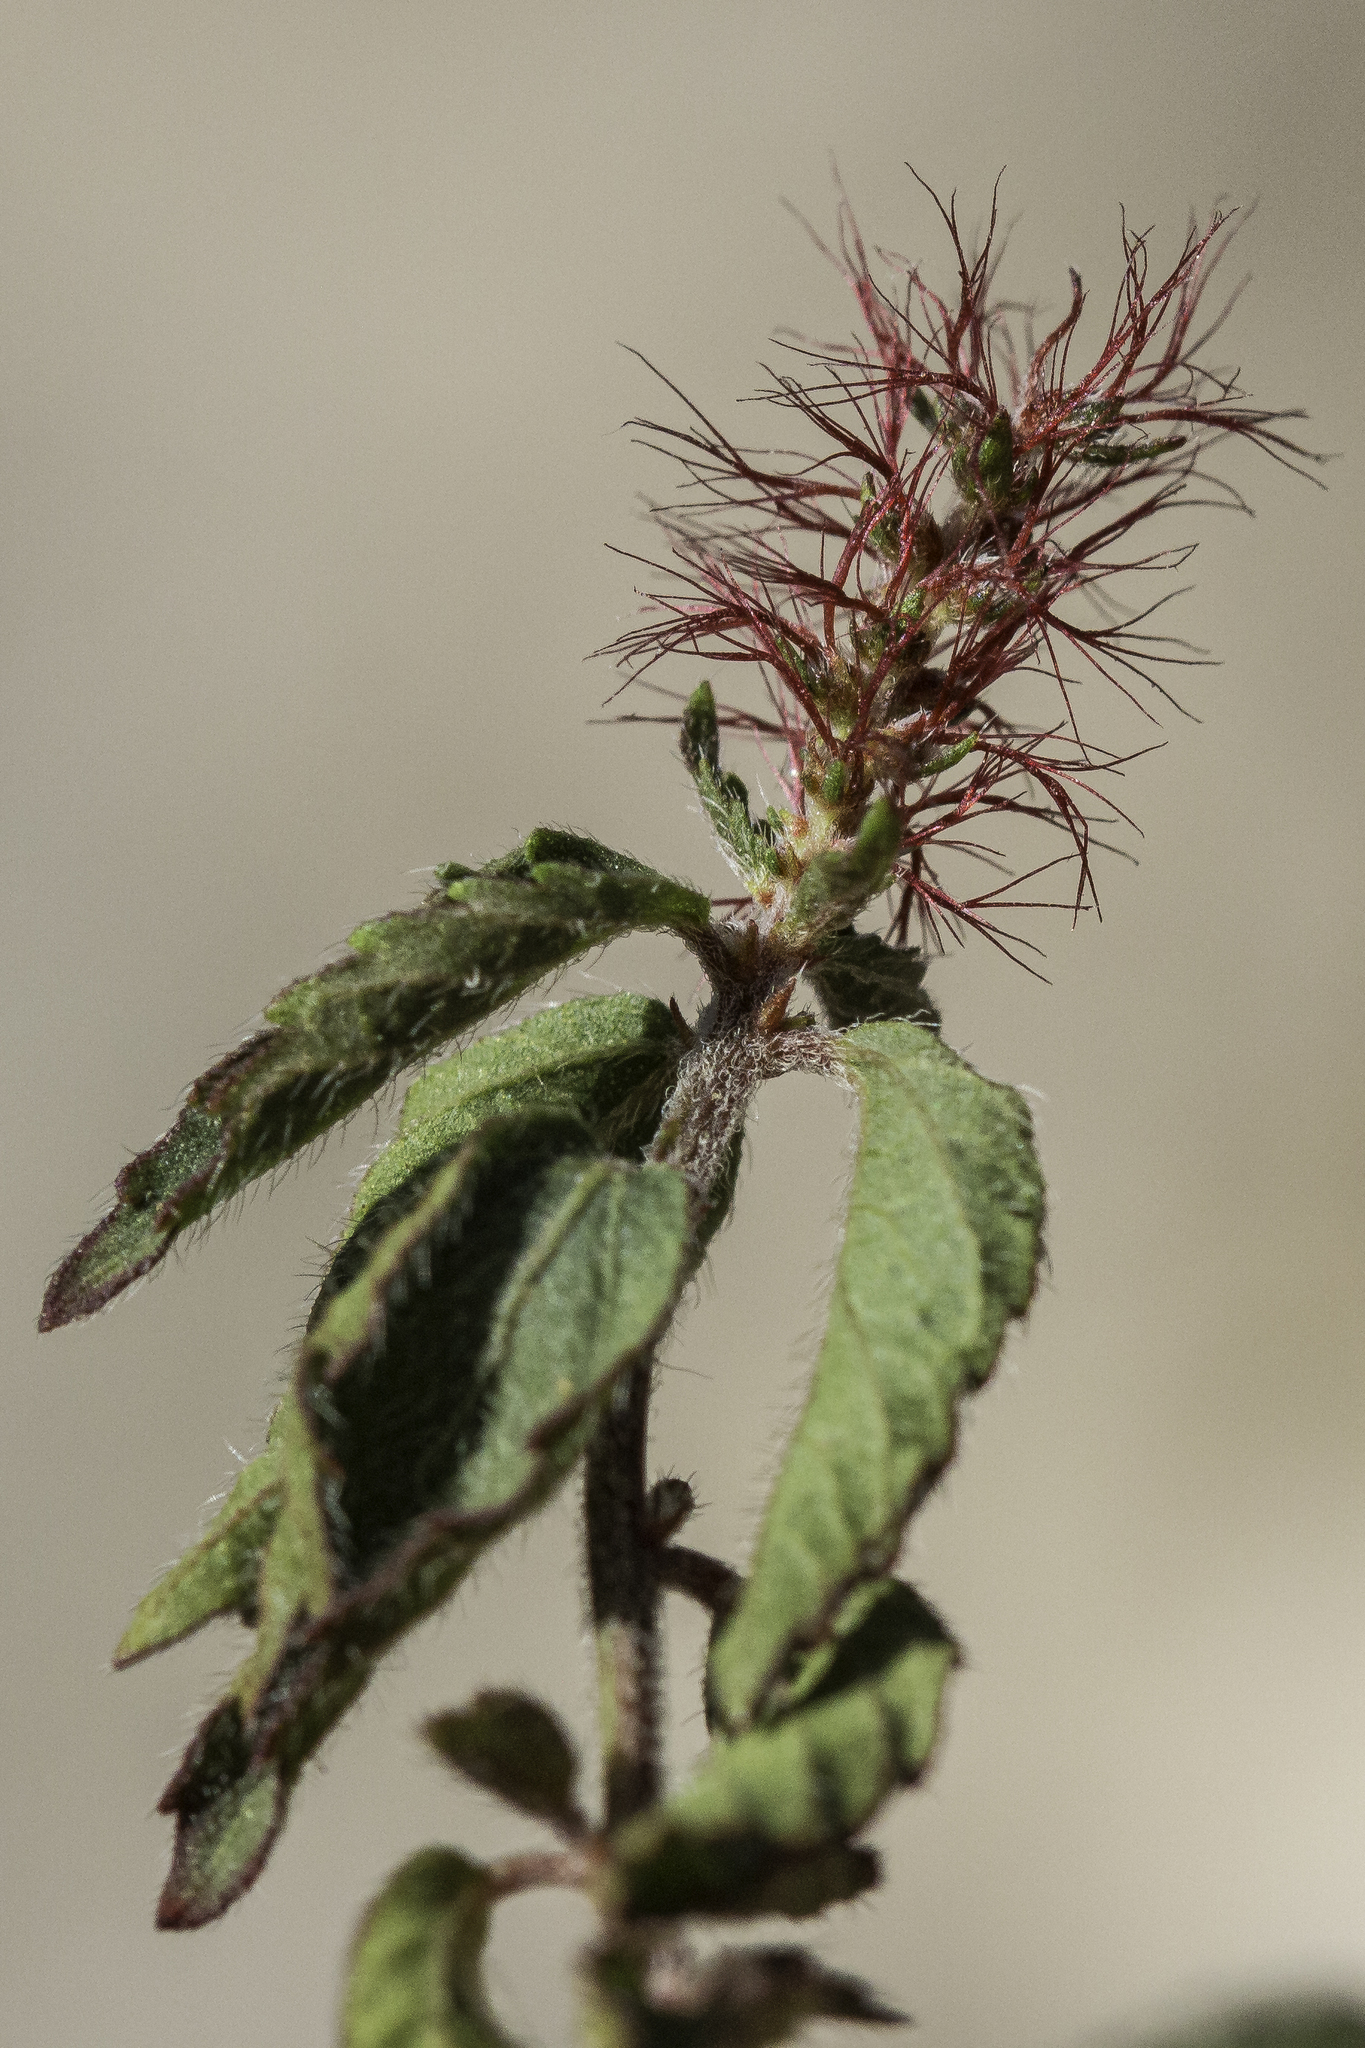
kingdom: Plantae
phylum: Tracheophyta
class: Magnoliopsida
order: Malpighiales
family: Euphorbiaceae
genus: Acalypha
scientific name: Acalypha phleoides
